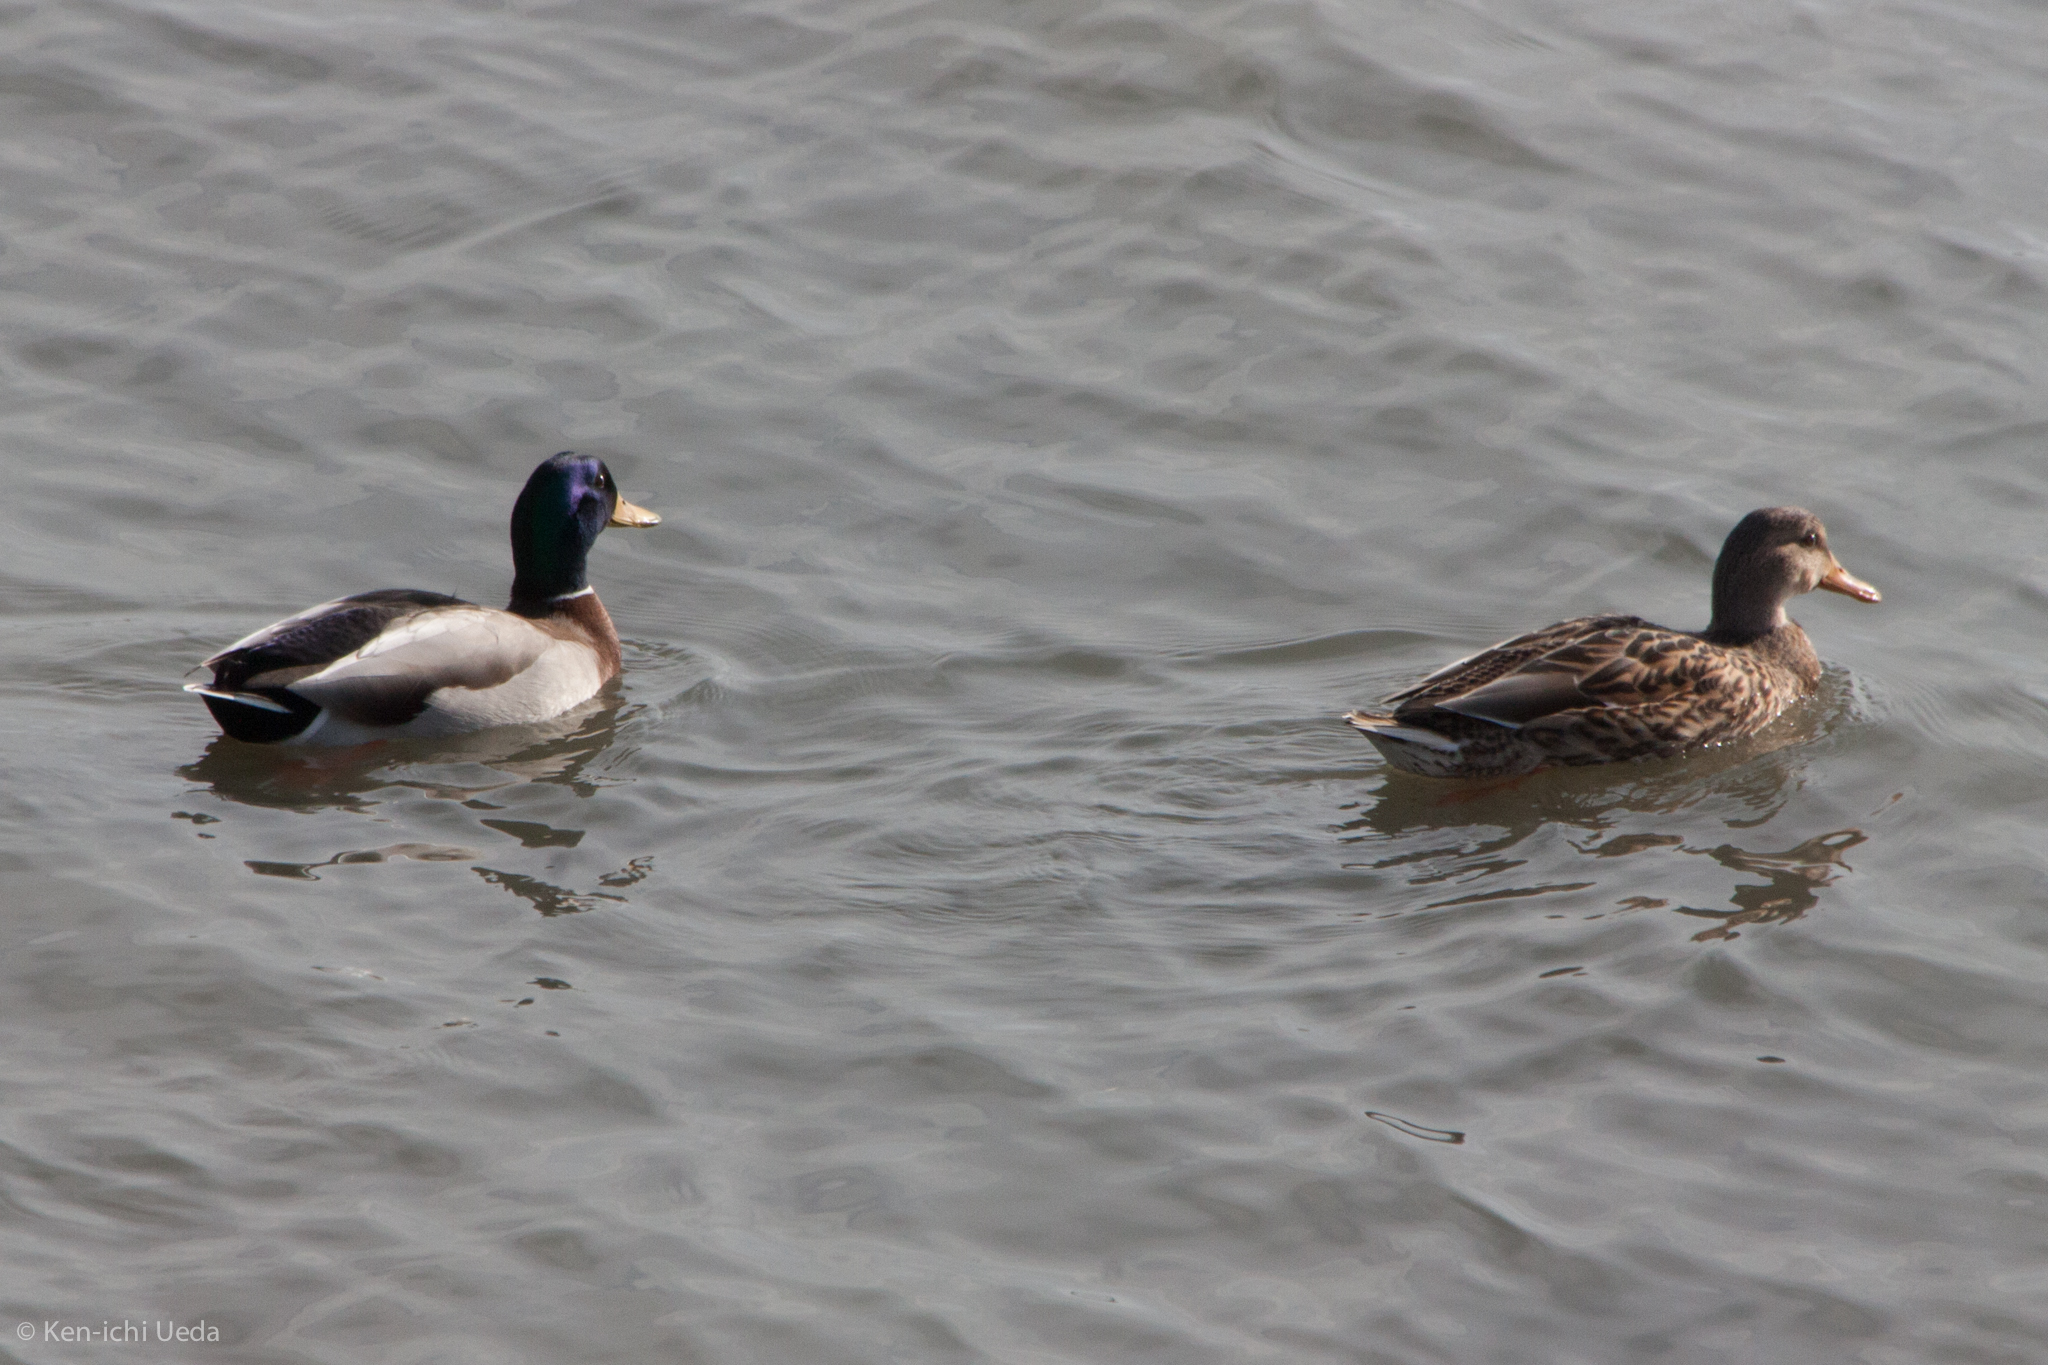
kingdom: Animalia
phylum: Chordata
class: Aves
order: Anseriformes
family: Anatidae
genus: Anas
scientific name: Anas platyrhynchos
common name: Mallard
